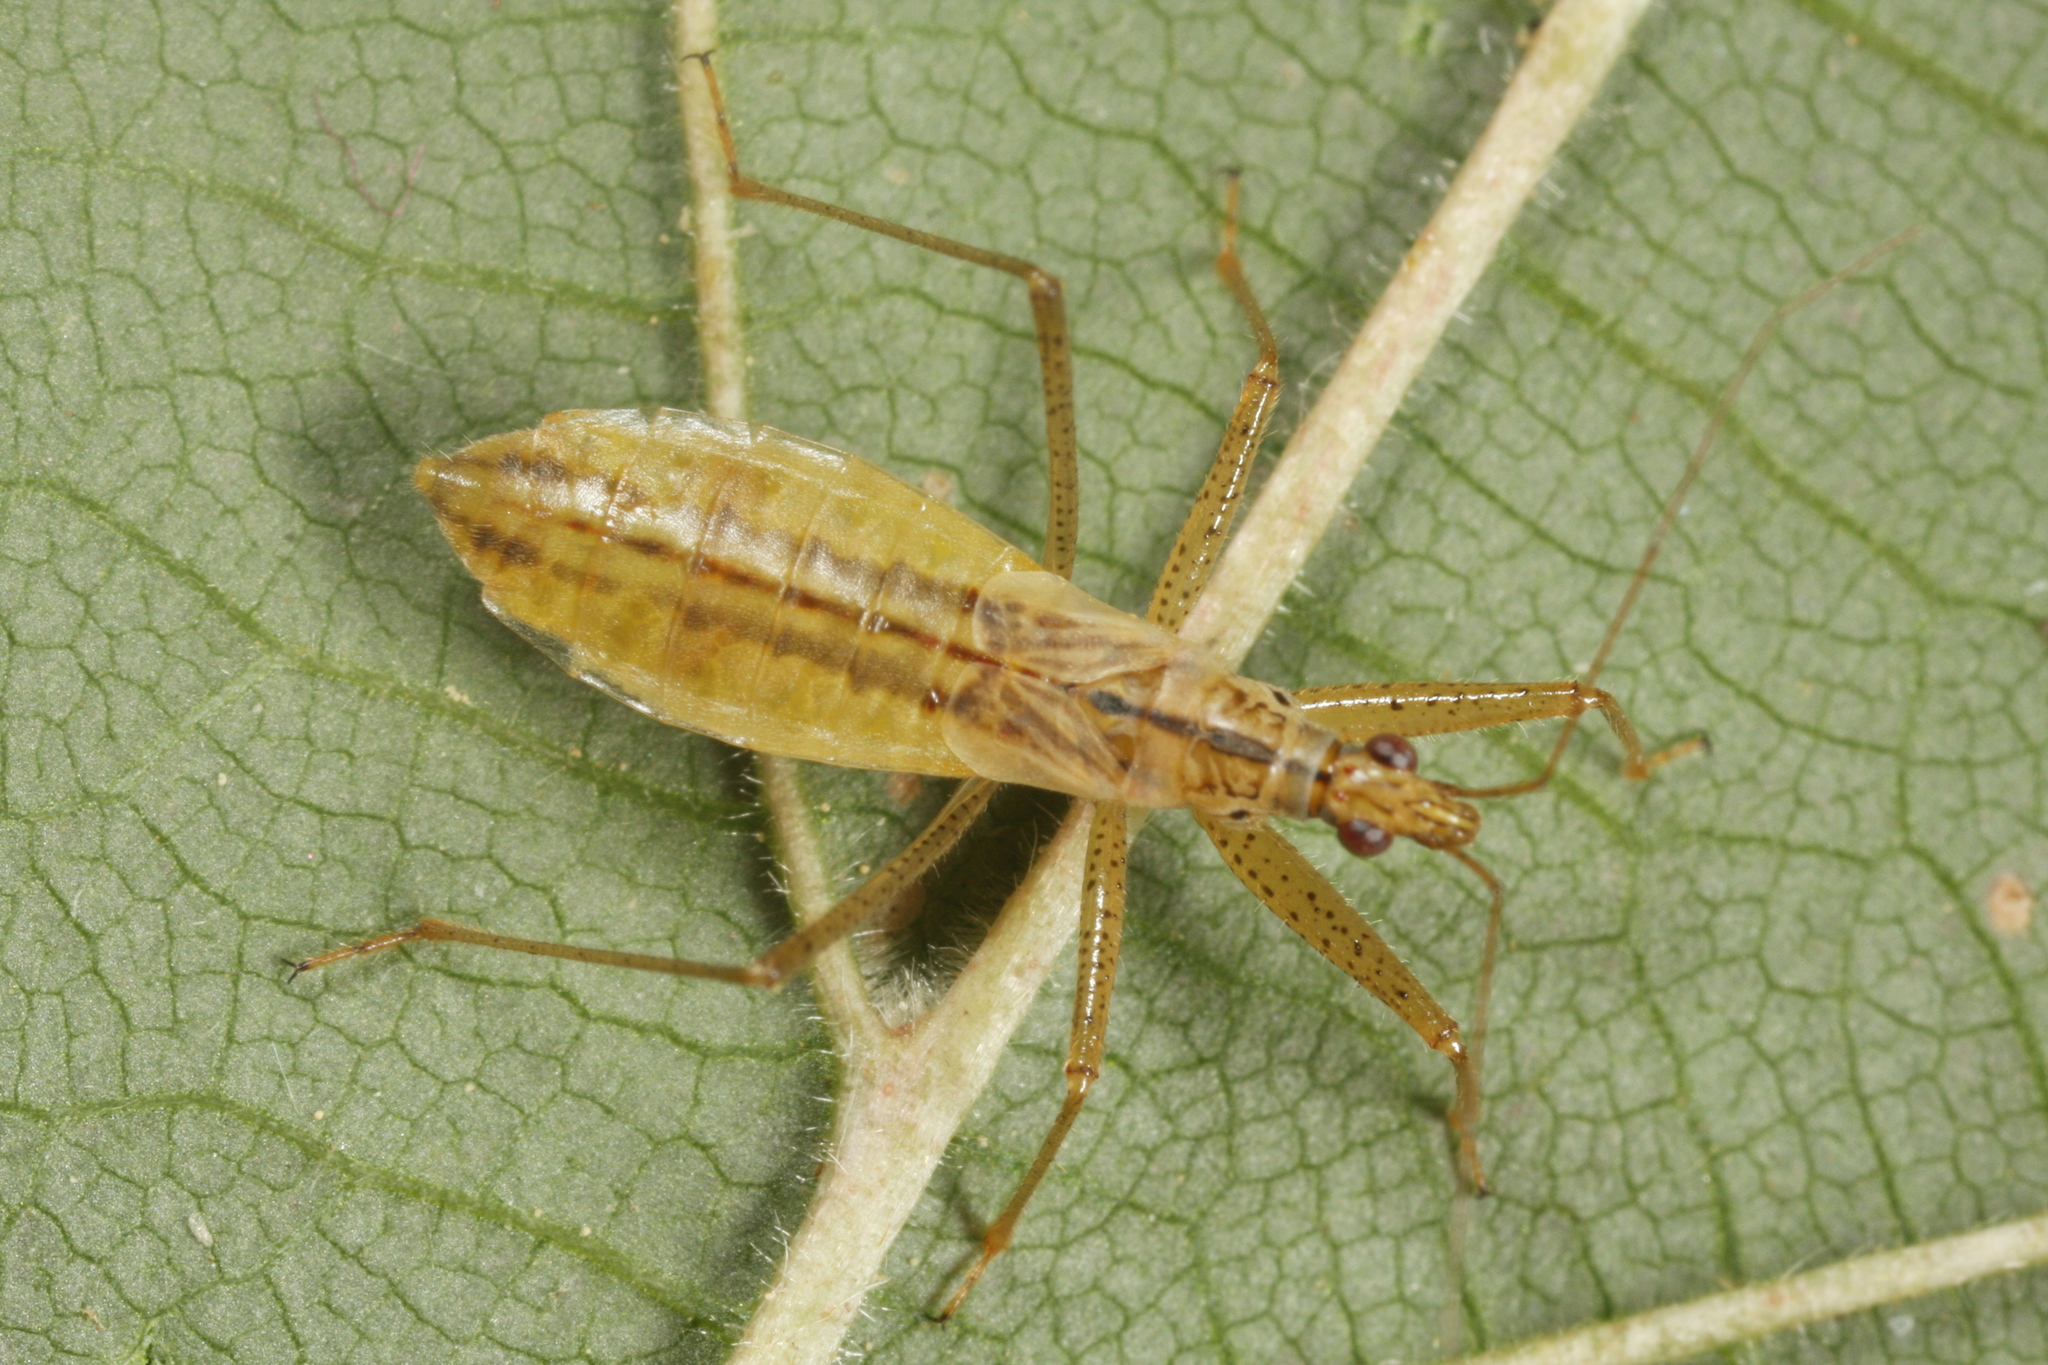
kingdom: Animalia
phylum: Arthropoda
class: Insecta
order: Hemiptera
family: Nabidae
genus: Nabis
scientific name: Nabis limbatus
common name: Marsh damselbug
